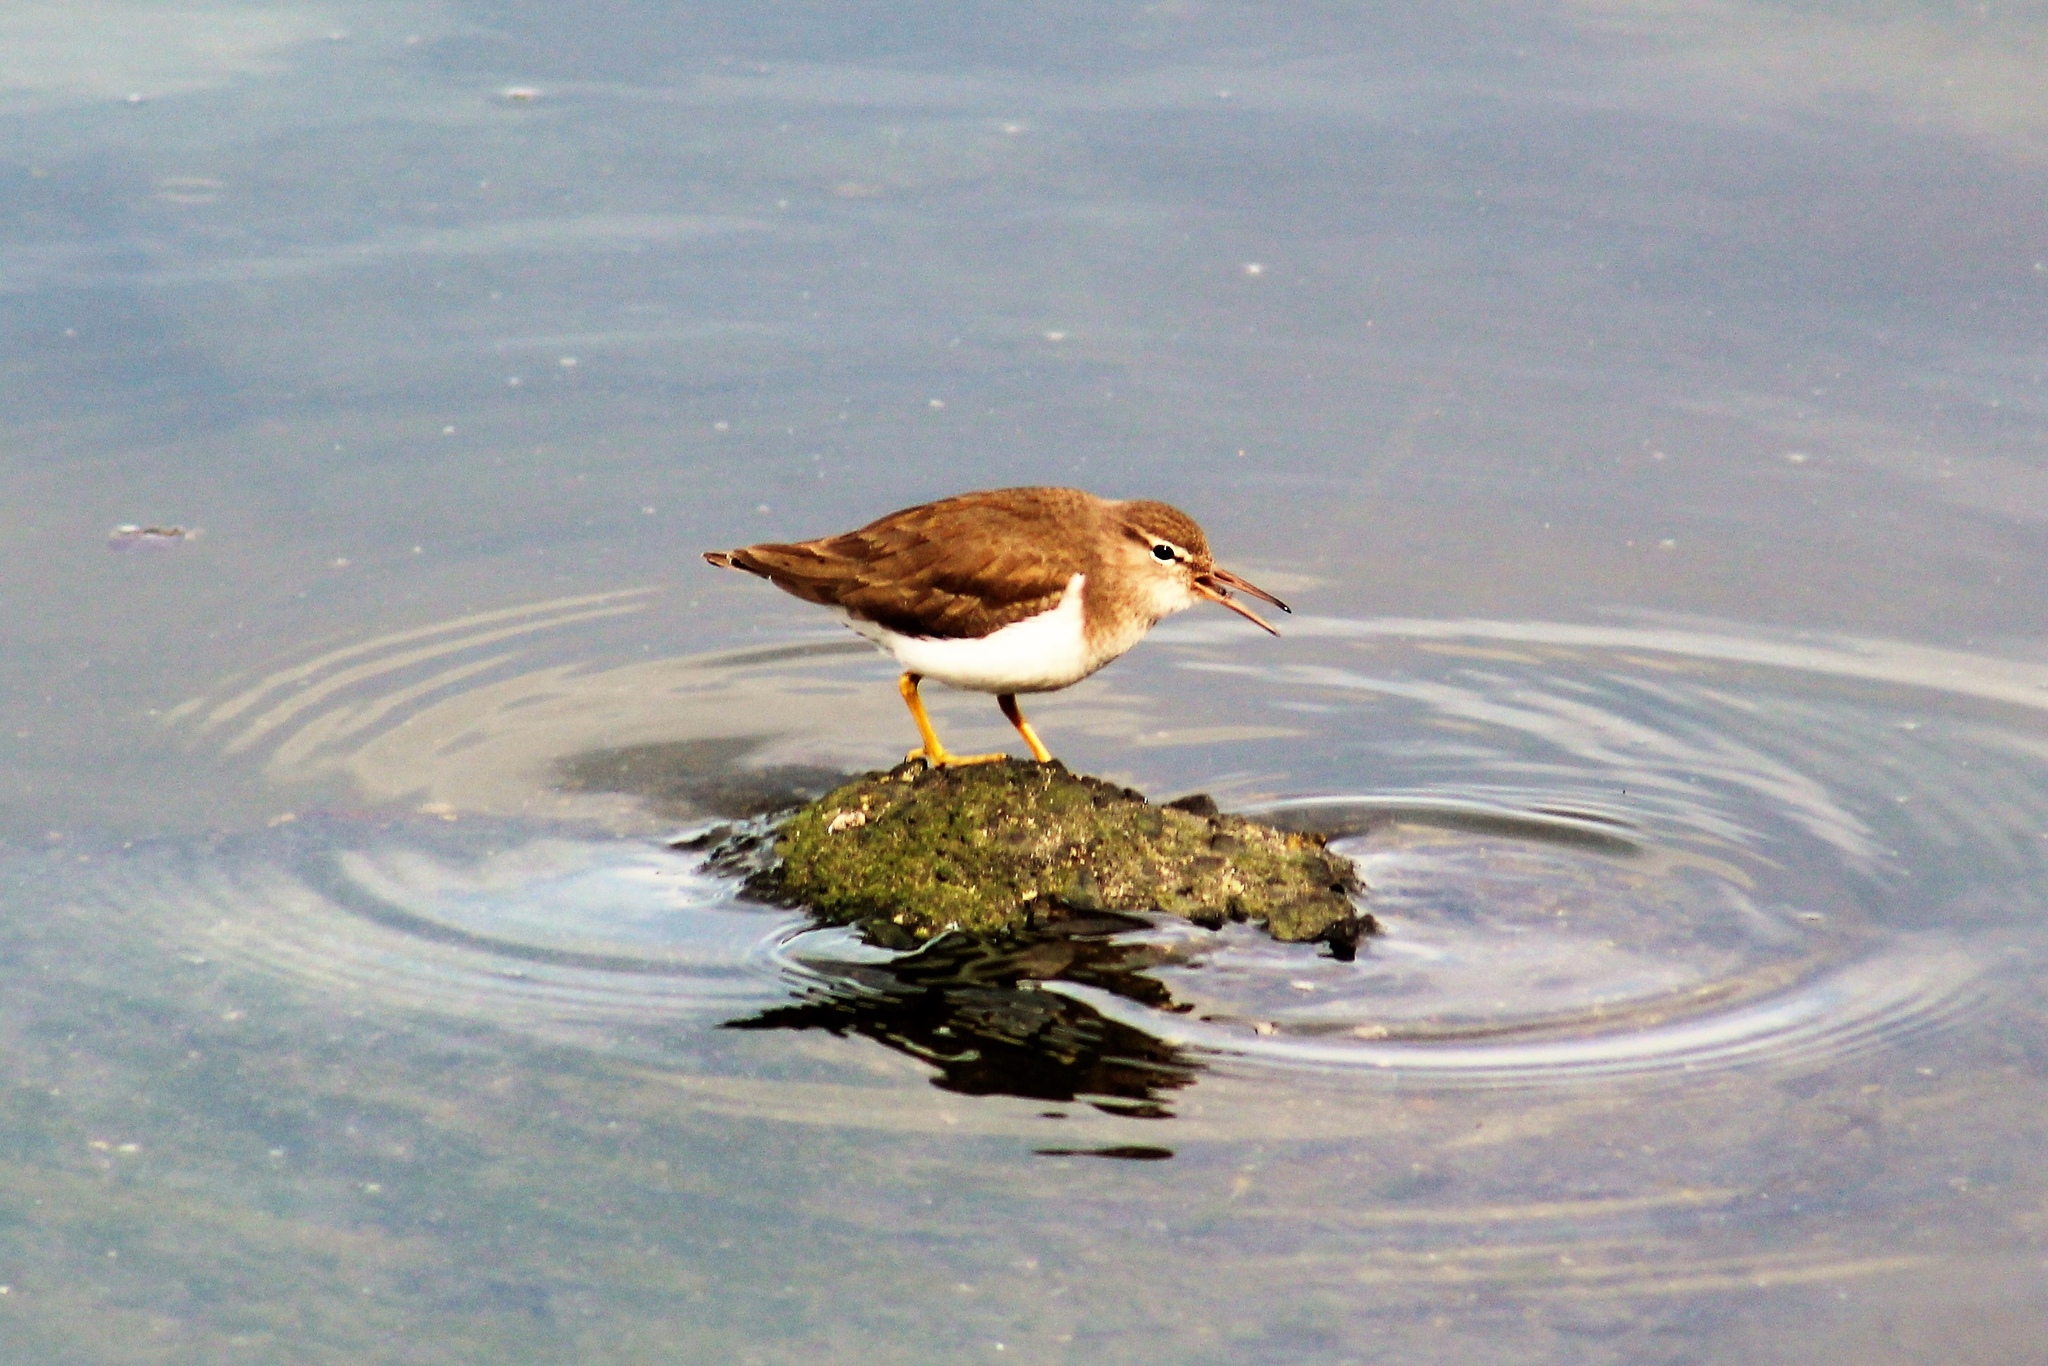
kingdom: Animalia
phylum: Chordata
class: Aves
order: Charadriiformes
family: Scolopacidae
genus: Actitis
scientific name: Actitis macularius
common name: Spotted sandpiper
